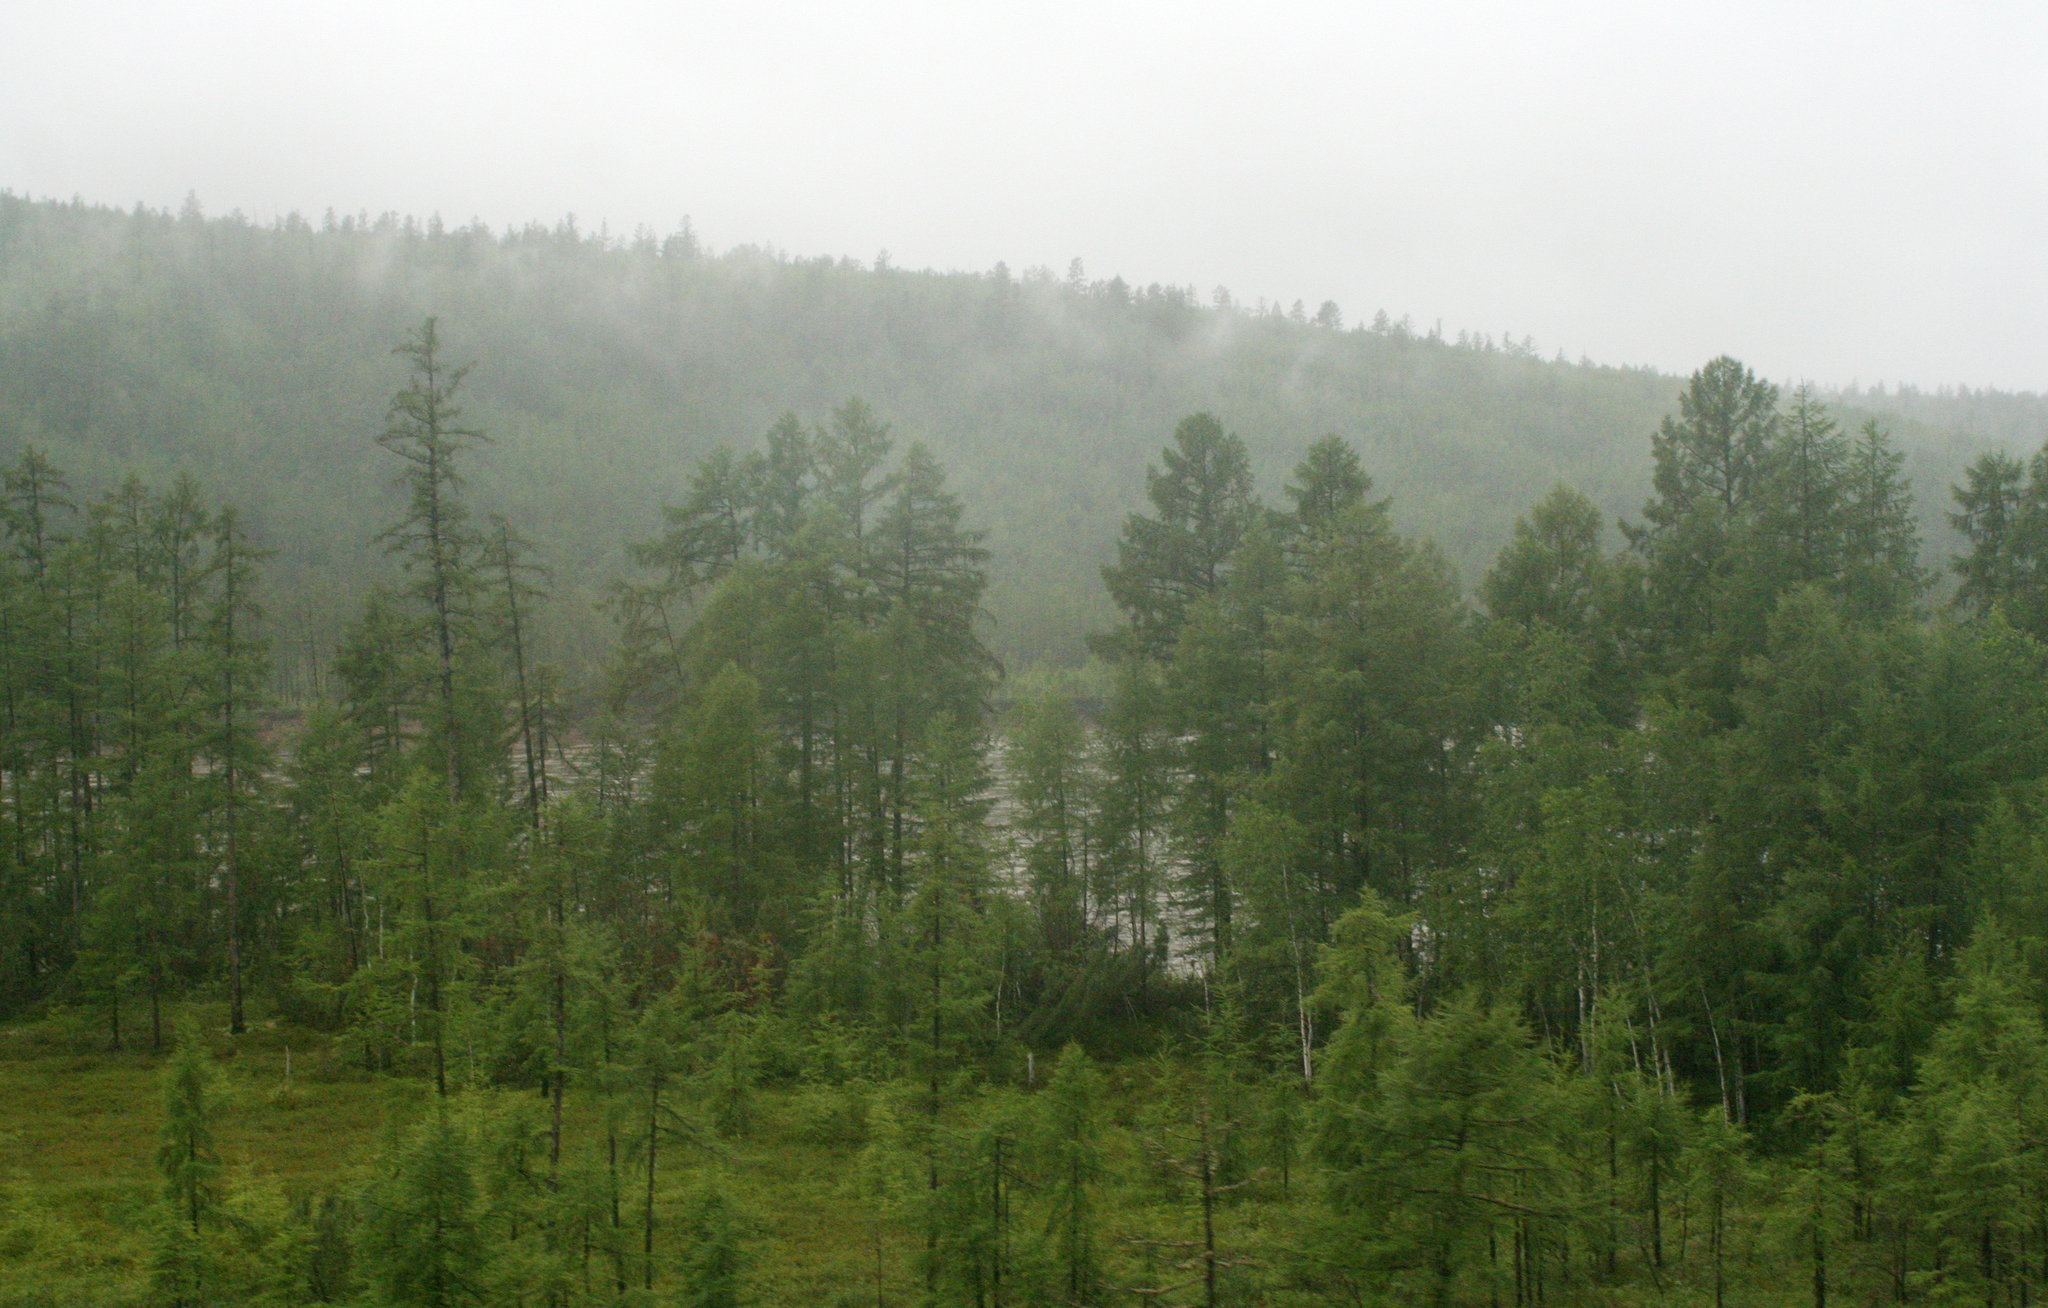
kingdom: Plantae
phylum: Tracheophyta
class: Pinopsida
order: Pinales
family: Pinaceae
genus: Larix
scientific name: Larix gmelinii
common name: Dahurian larch
